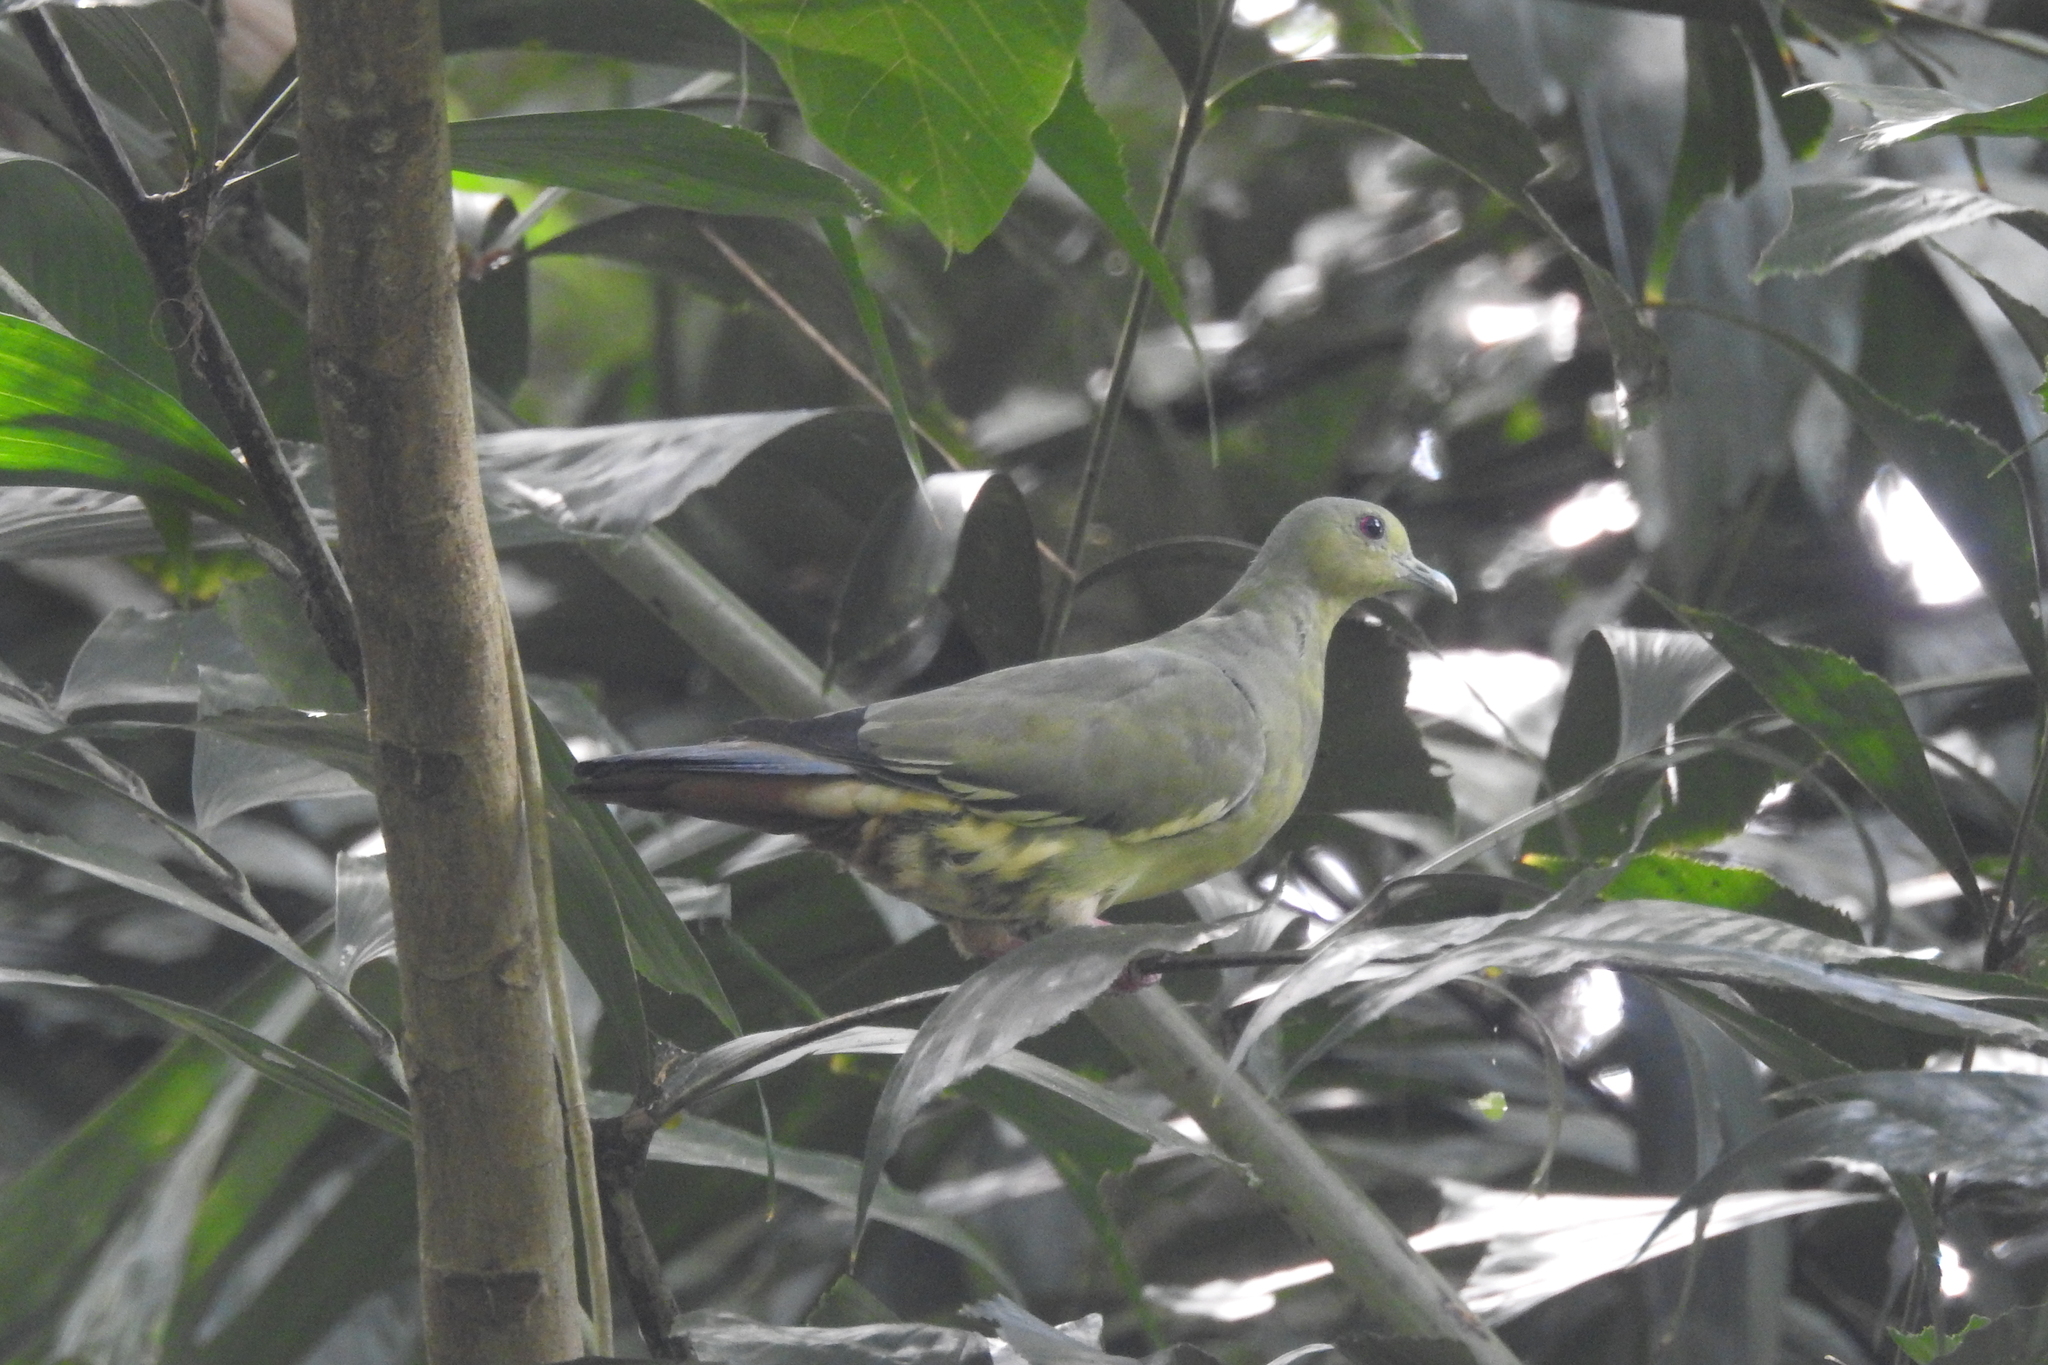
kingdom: Animalia
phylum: Chordata
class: Aves
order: Columbiformes
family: Columbidae
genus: Treron
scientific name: Treron vernans
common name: Pink-necked green pigeon
